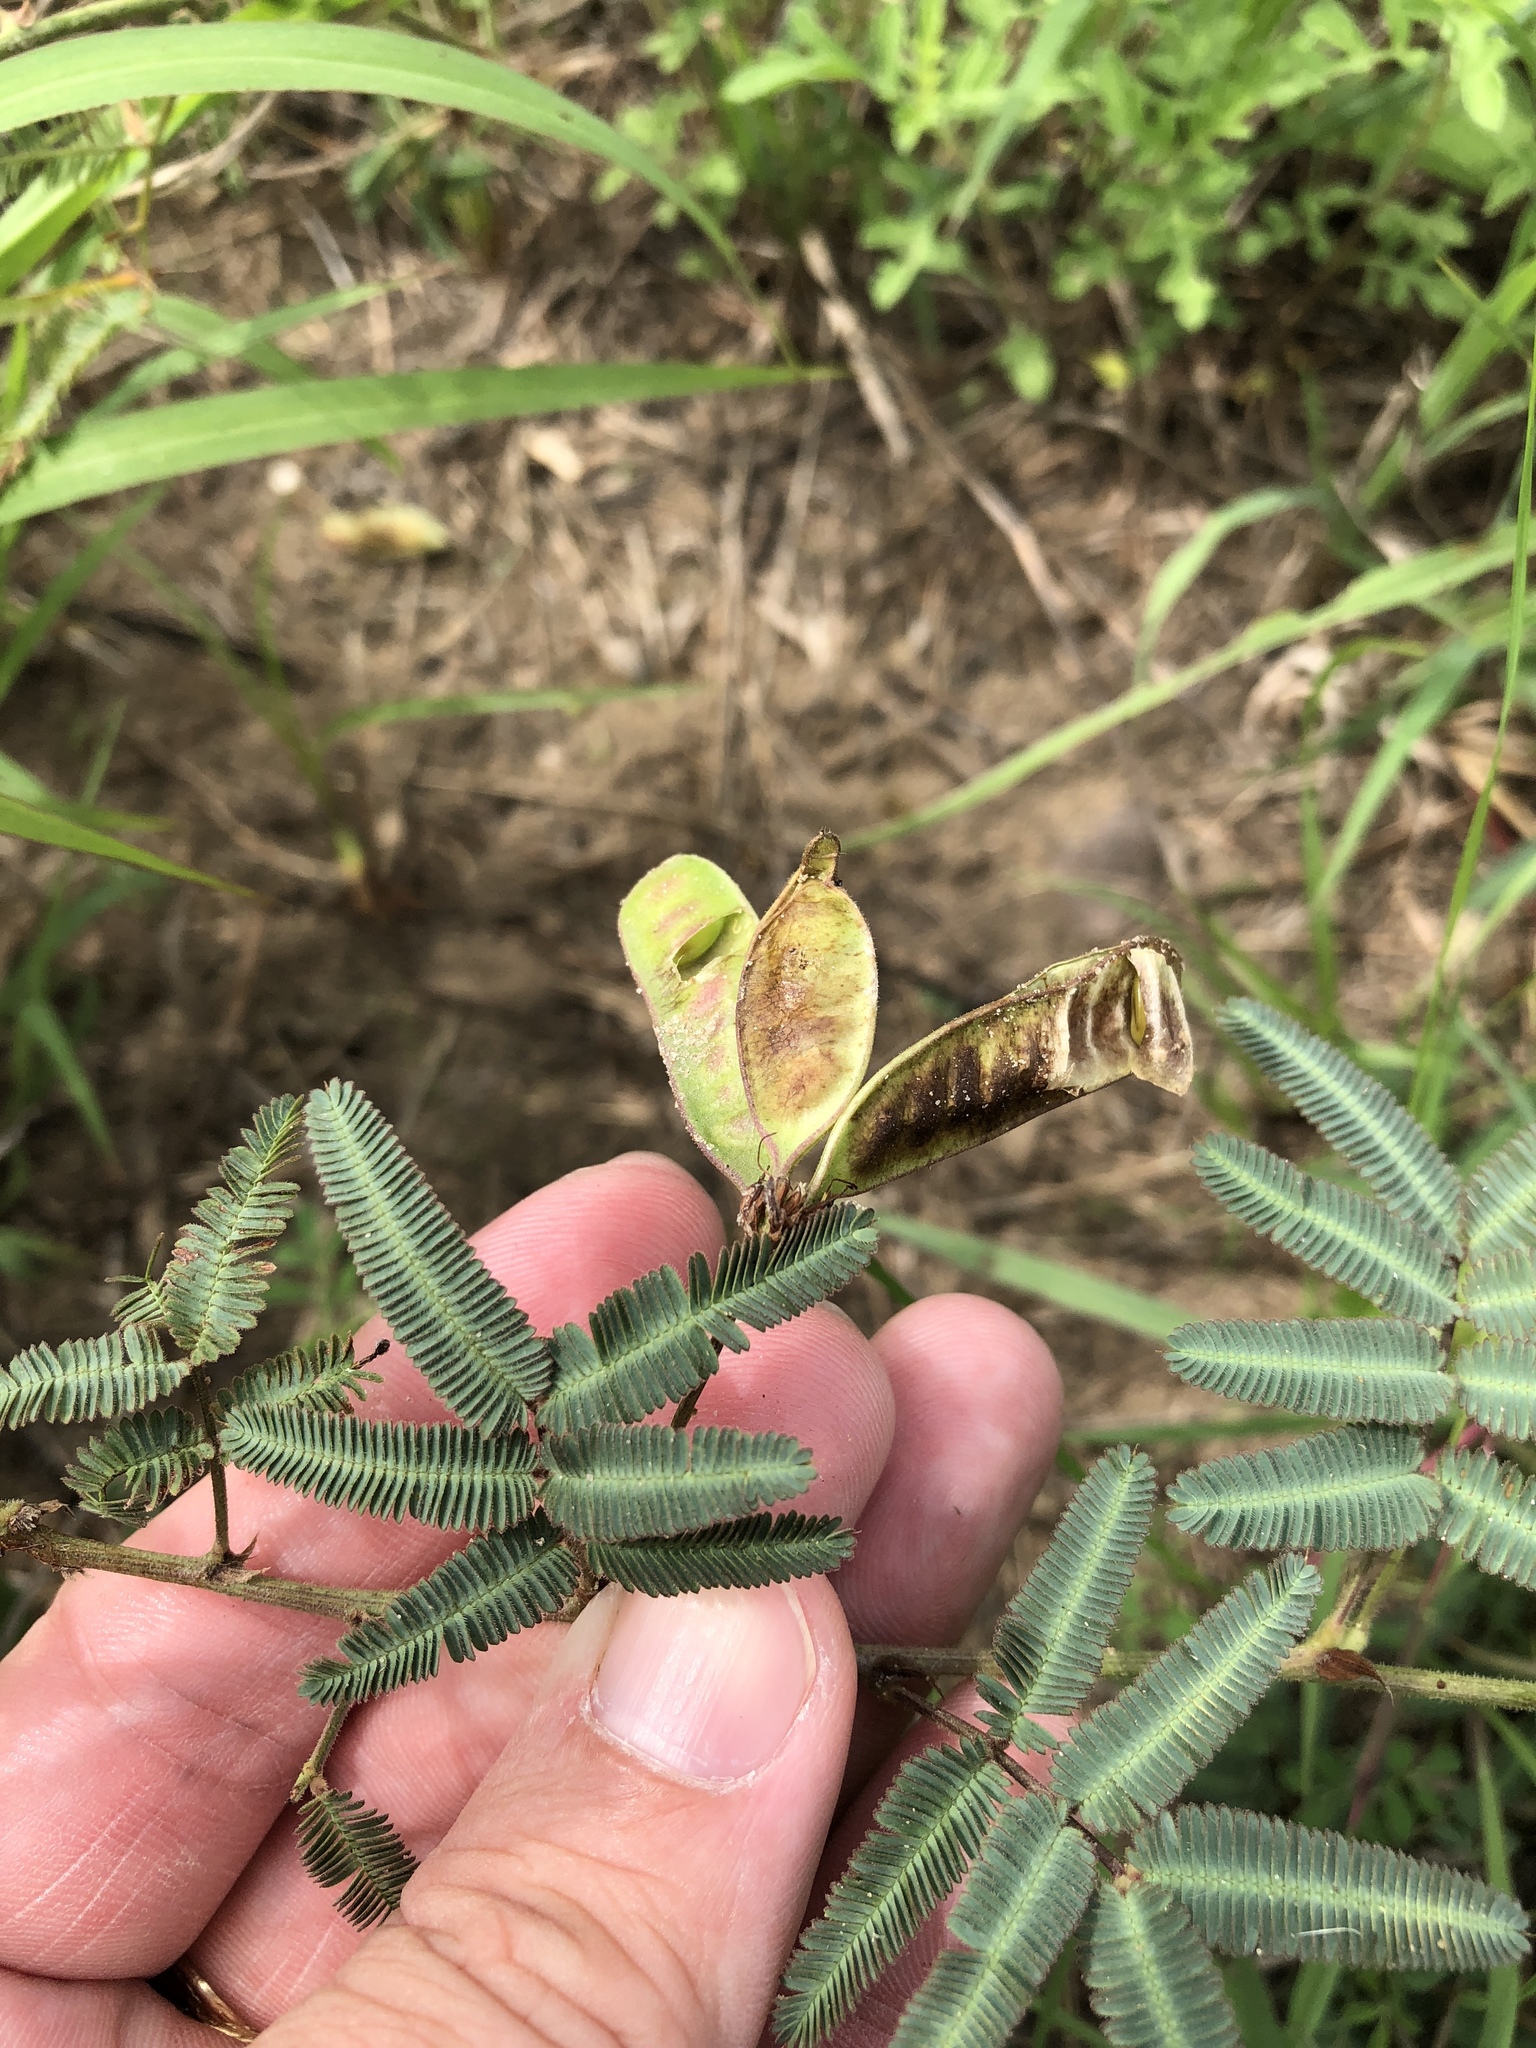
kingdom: Plantae
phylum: Tracheophyta
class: Magnoliopsida
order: Fabales
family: Fabaceae
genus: Neptunia
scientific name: Neptunia pubescens
